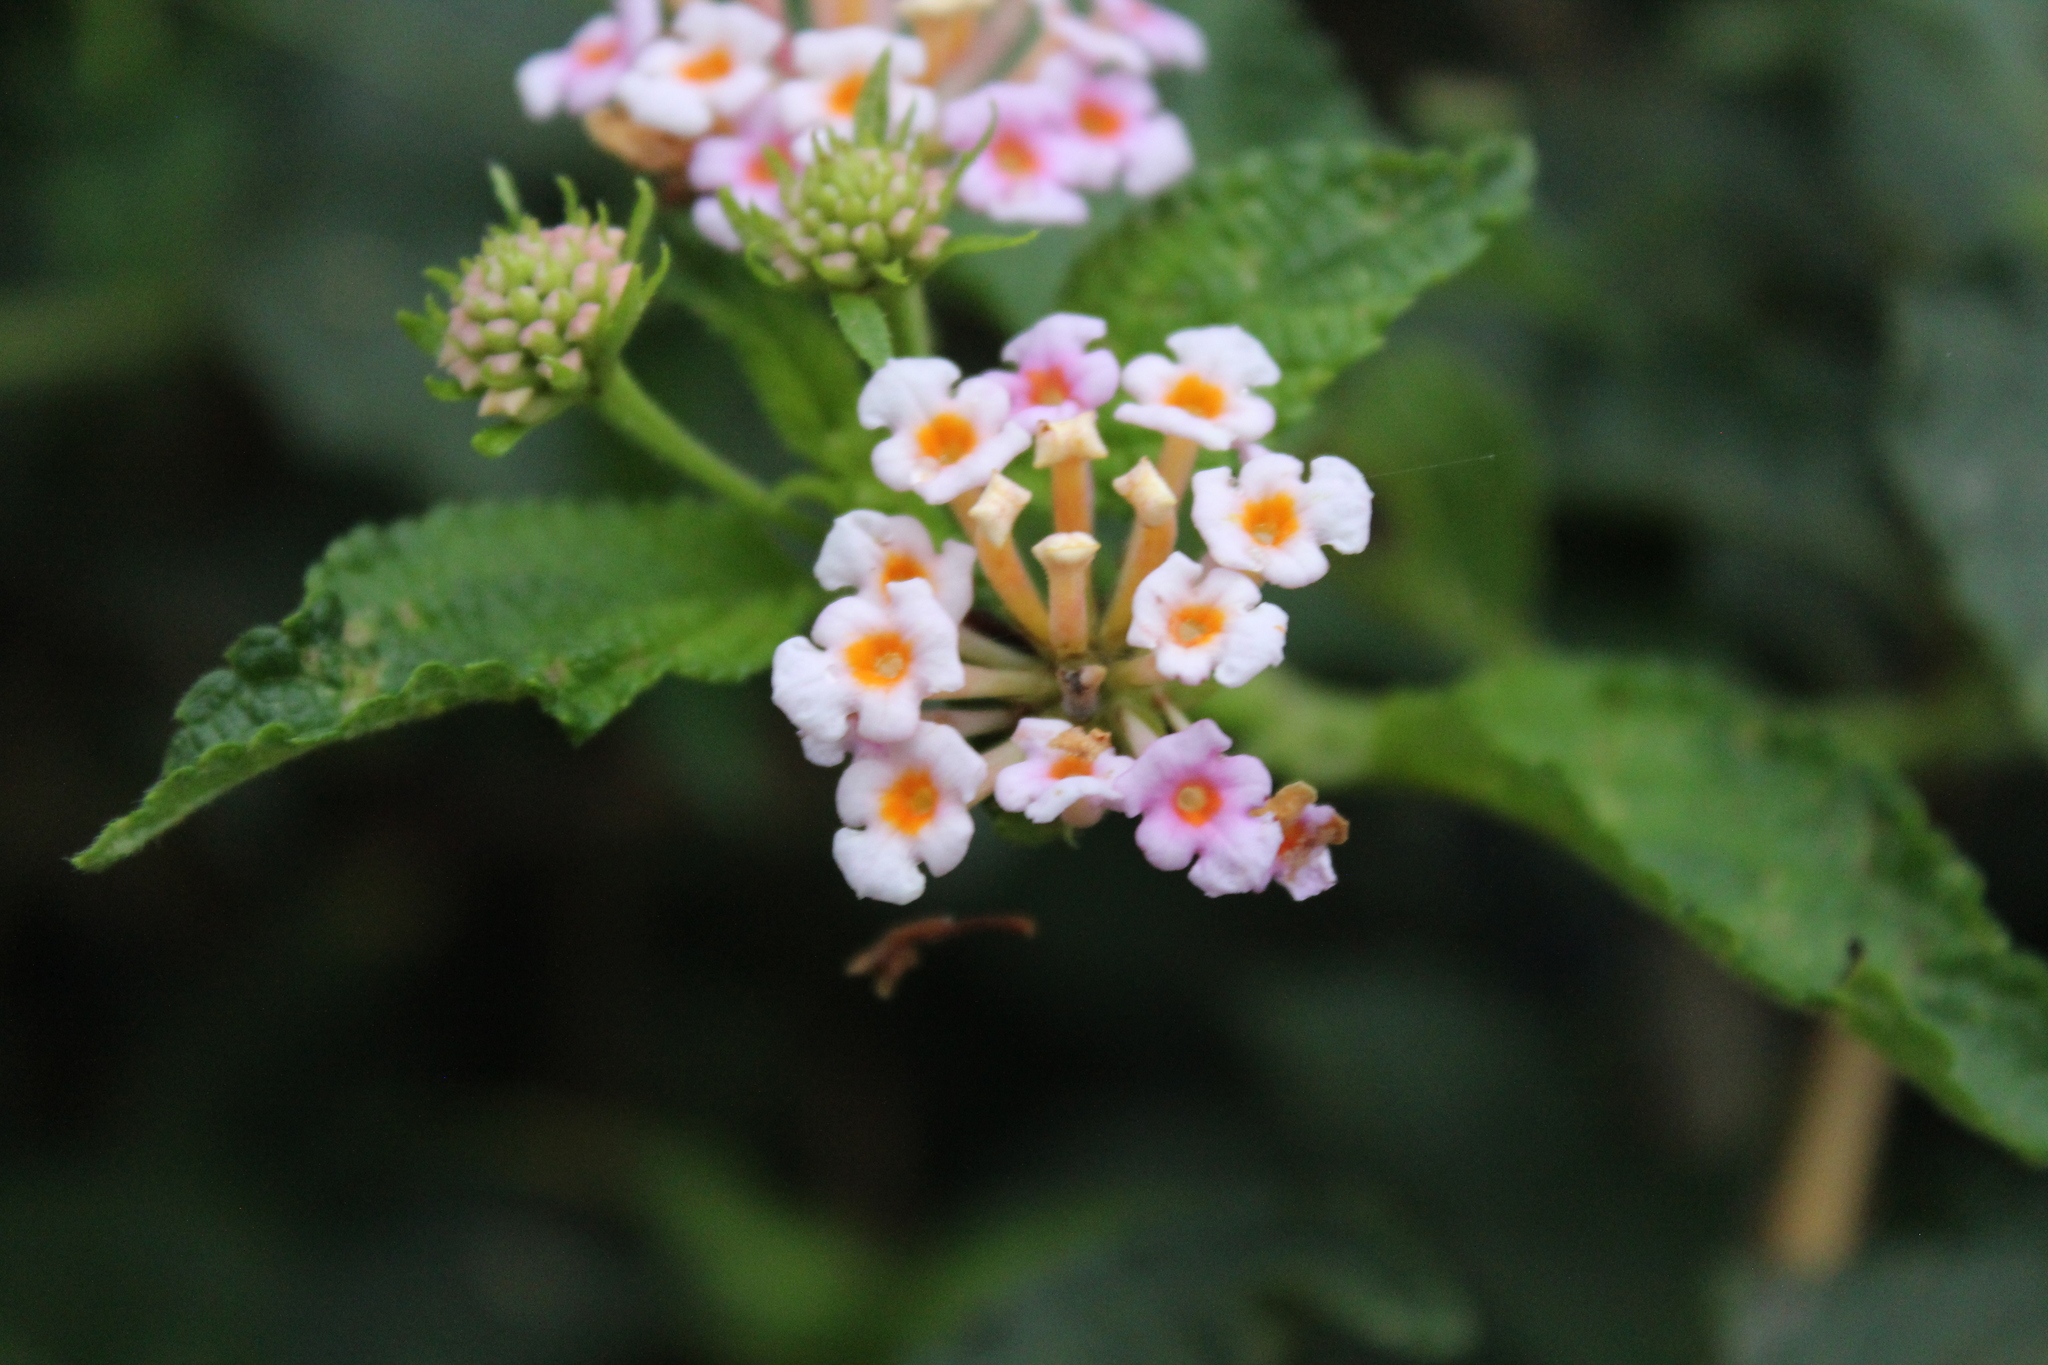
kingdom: Plantae
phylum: Tracheophyta
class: Magnoliopsida
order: Lamiales
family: Verbenaceae
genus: Lantana
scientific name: Lantana camara
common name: Lantana
